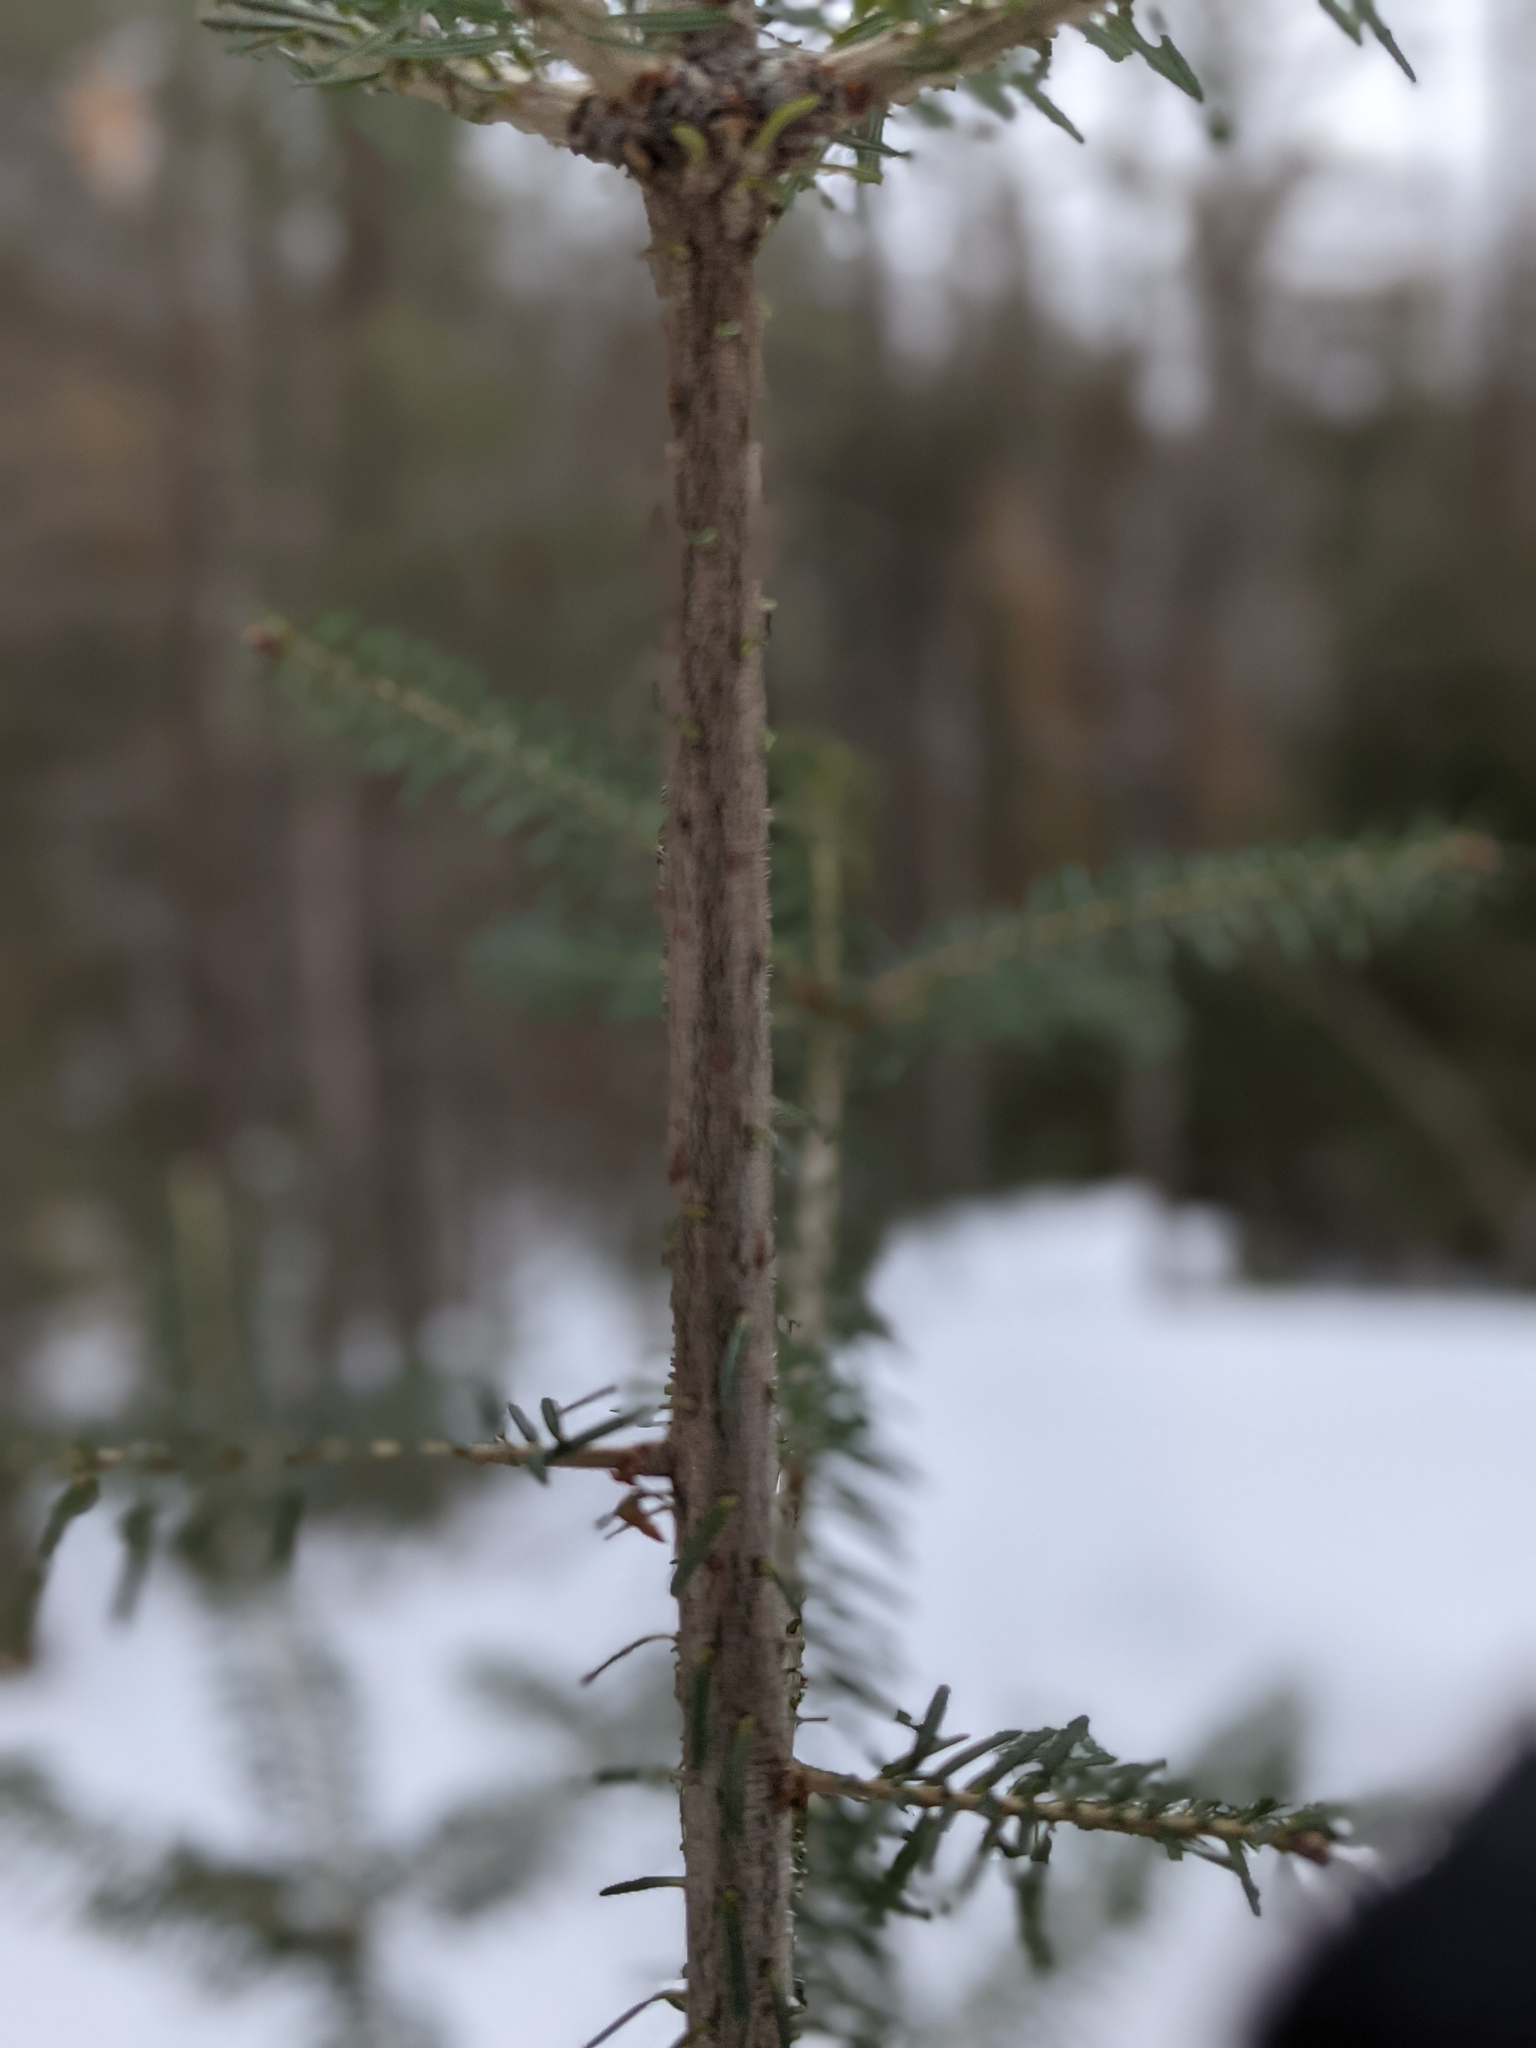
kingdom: Plantae
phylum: Tracheophyta
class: Pinopsida
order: Pinales
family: Pinaceae
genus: Abies
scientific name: Abies balsamea
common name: Balsam fir
